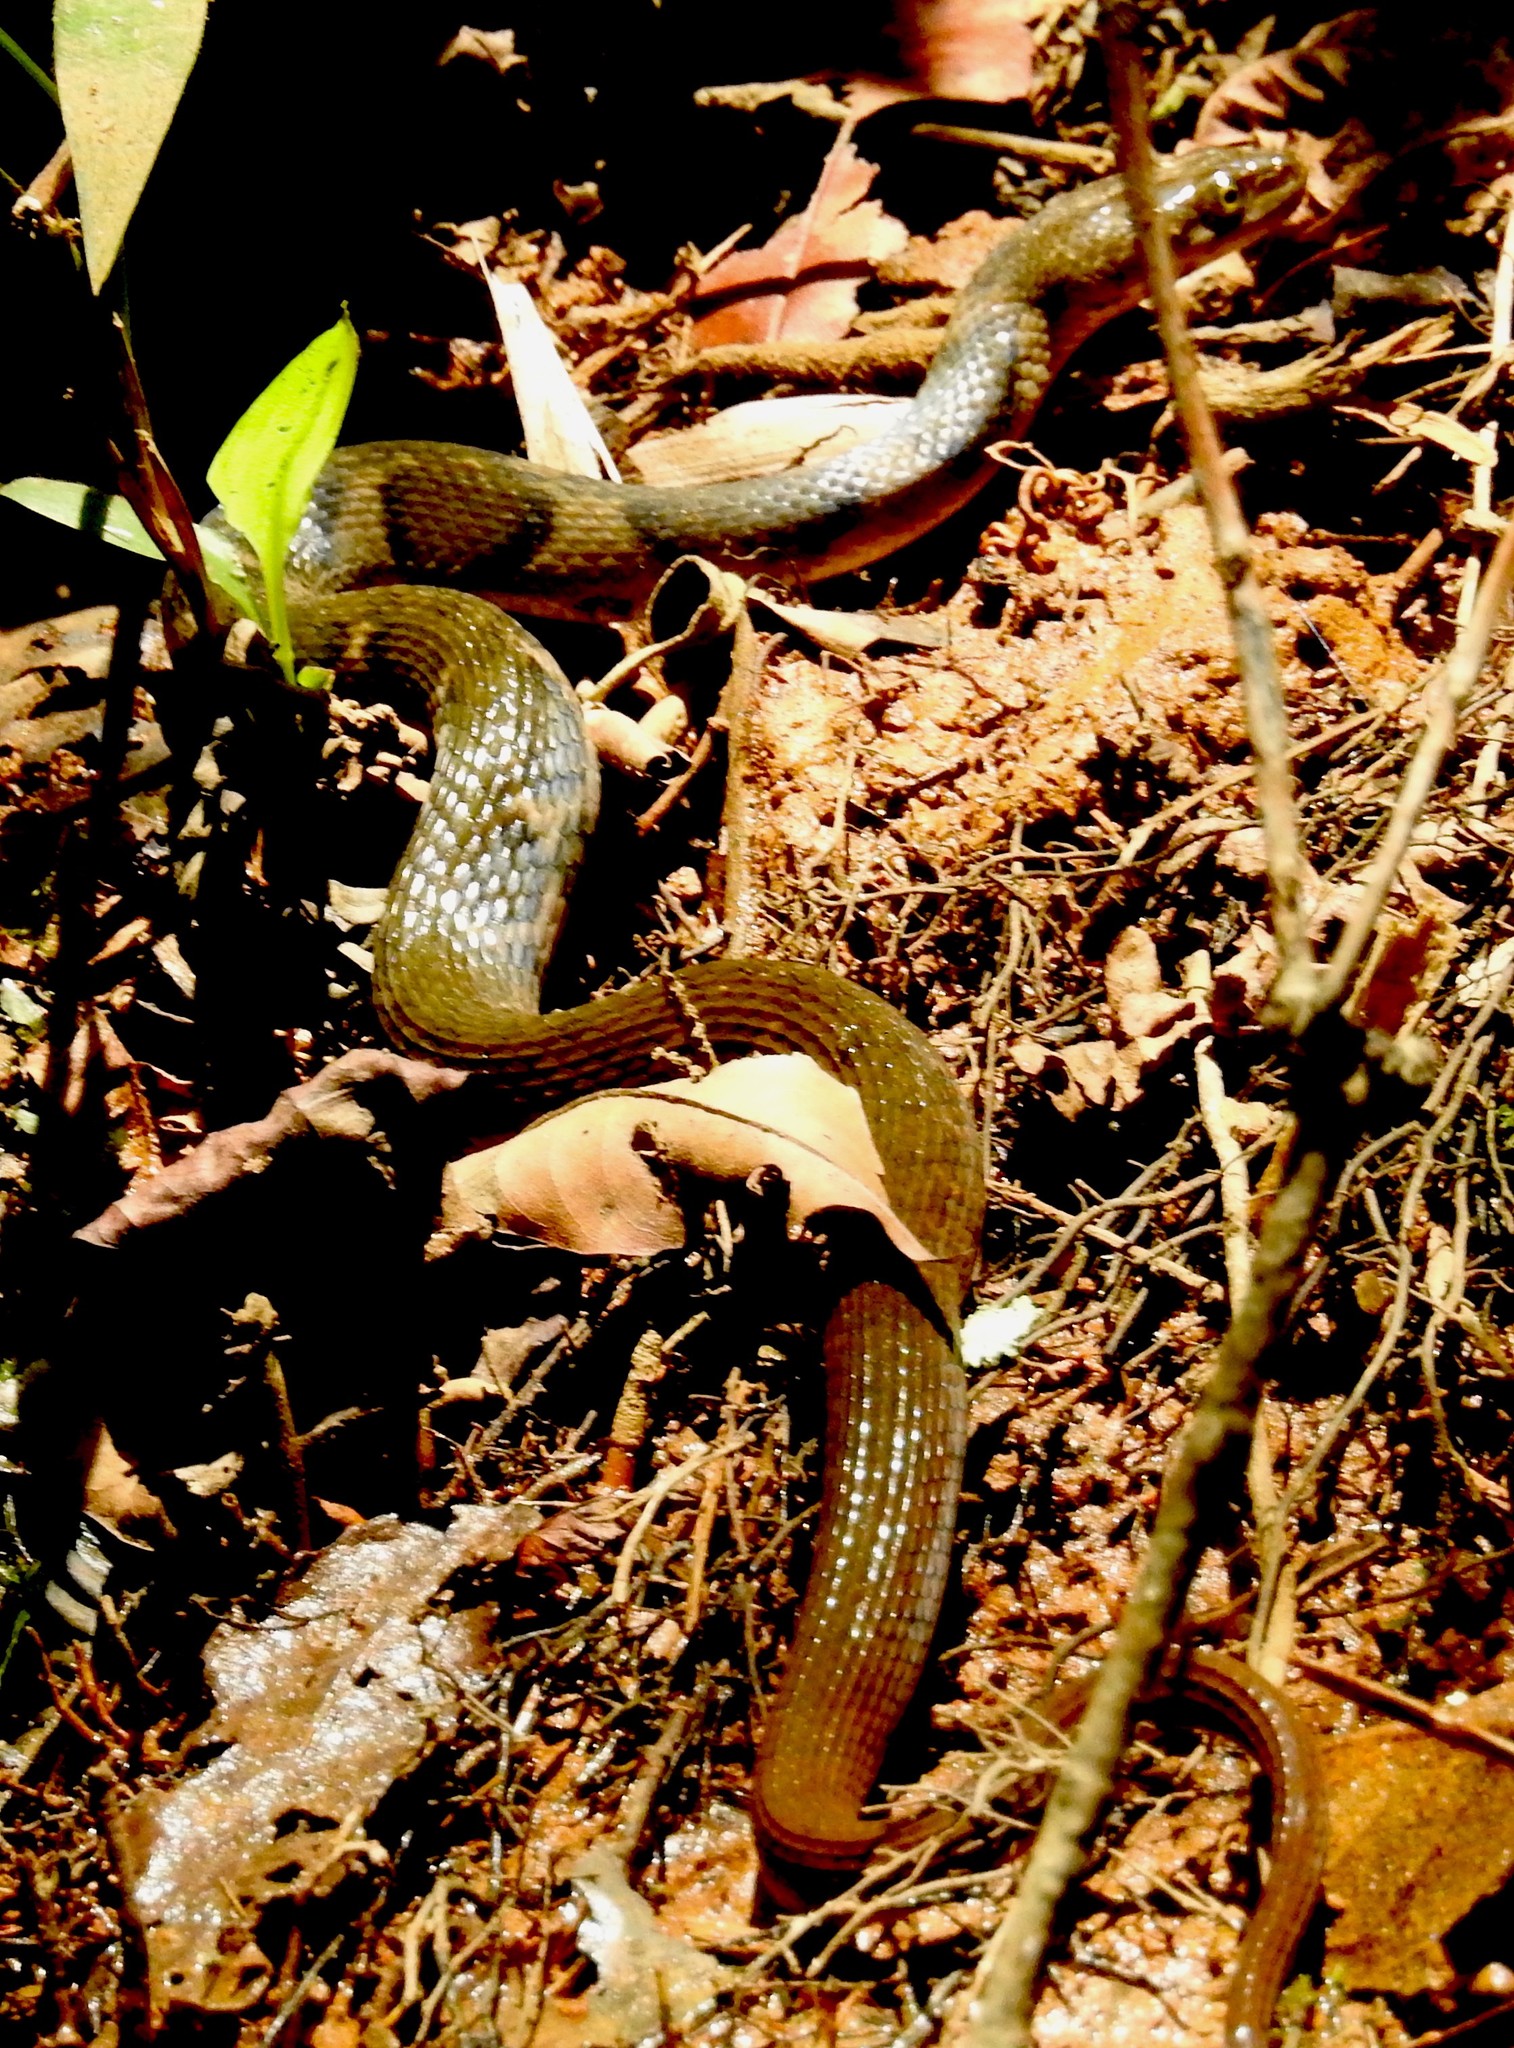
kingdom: Animalia
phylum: Chordata
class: Squamata
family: Colubridae
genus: Fowlea
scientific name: Fowlea asperrimus
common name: Boulenger's keelback
